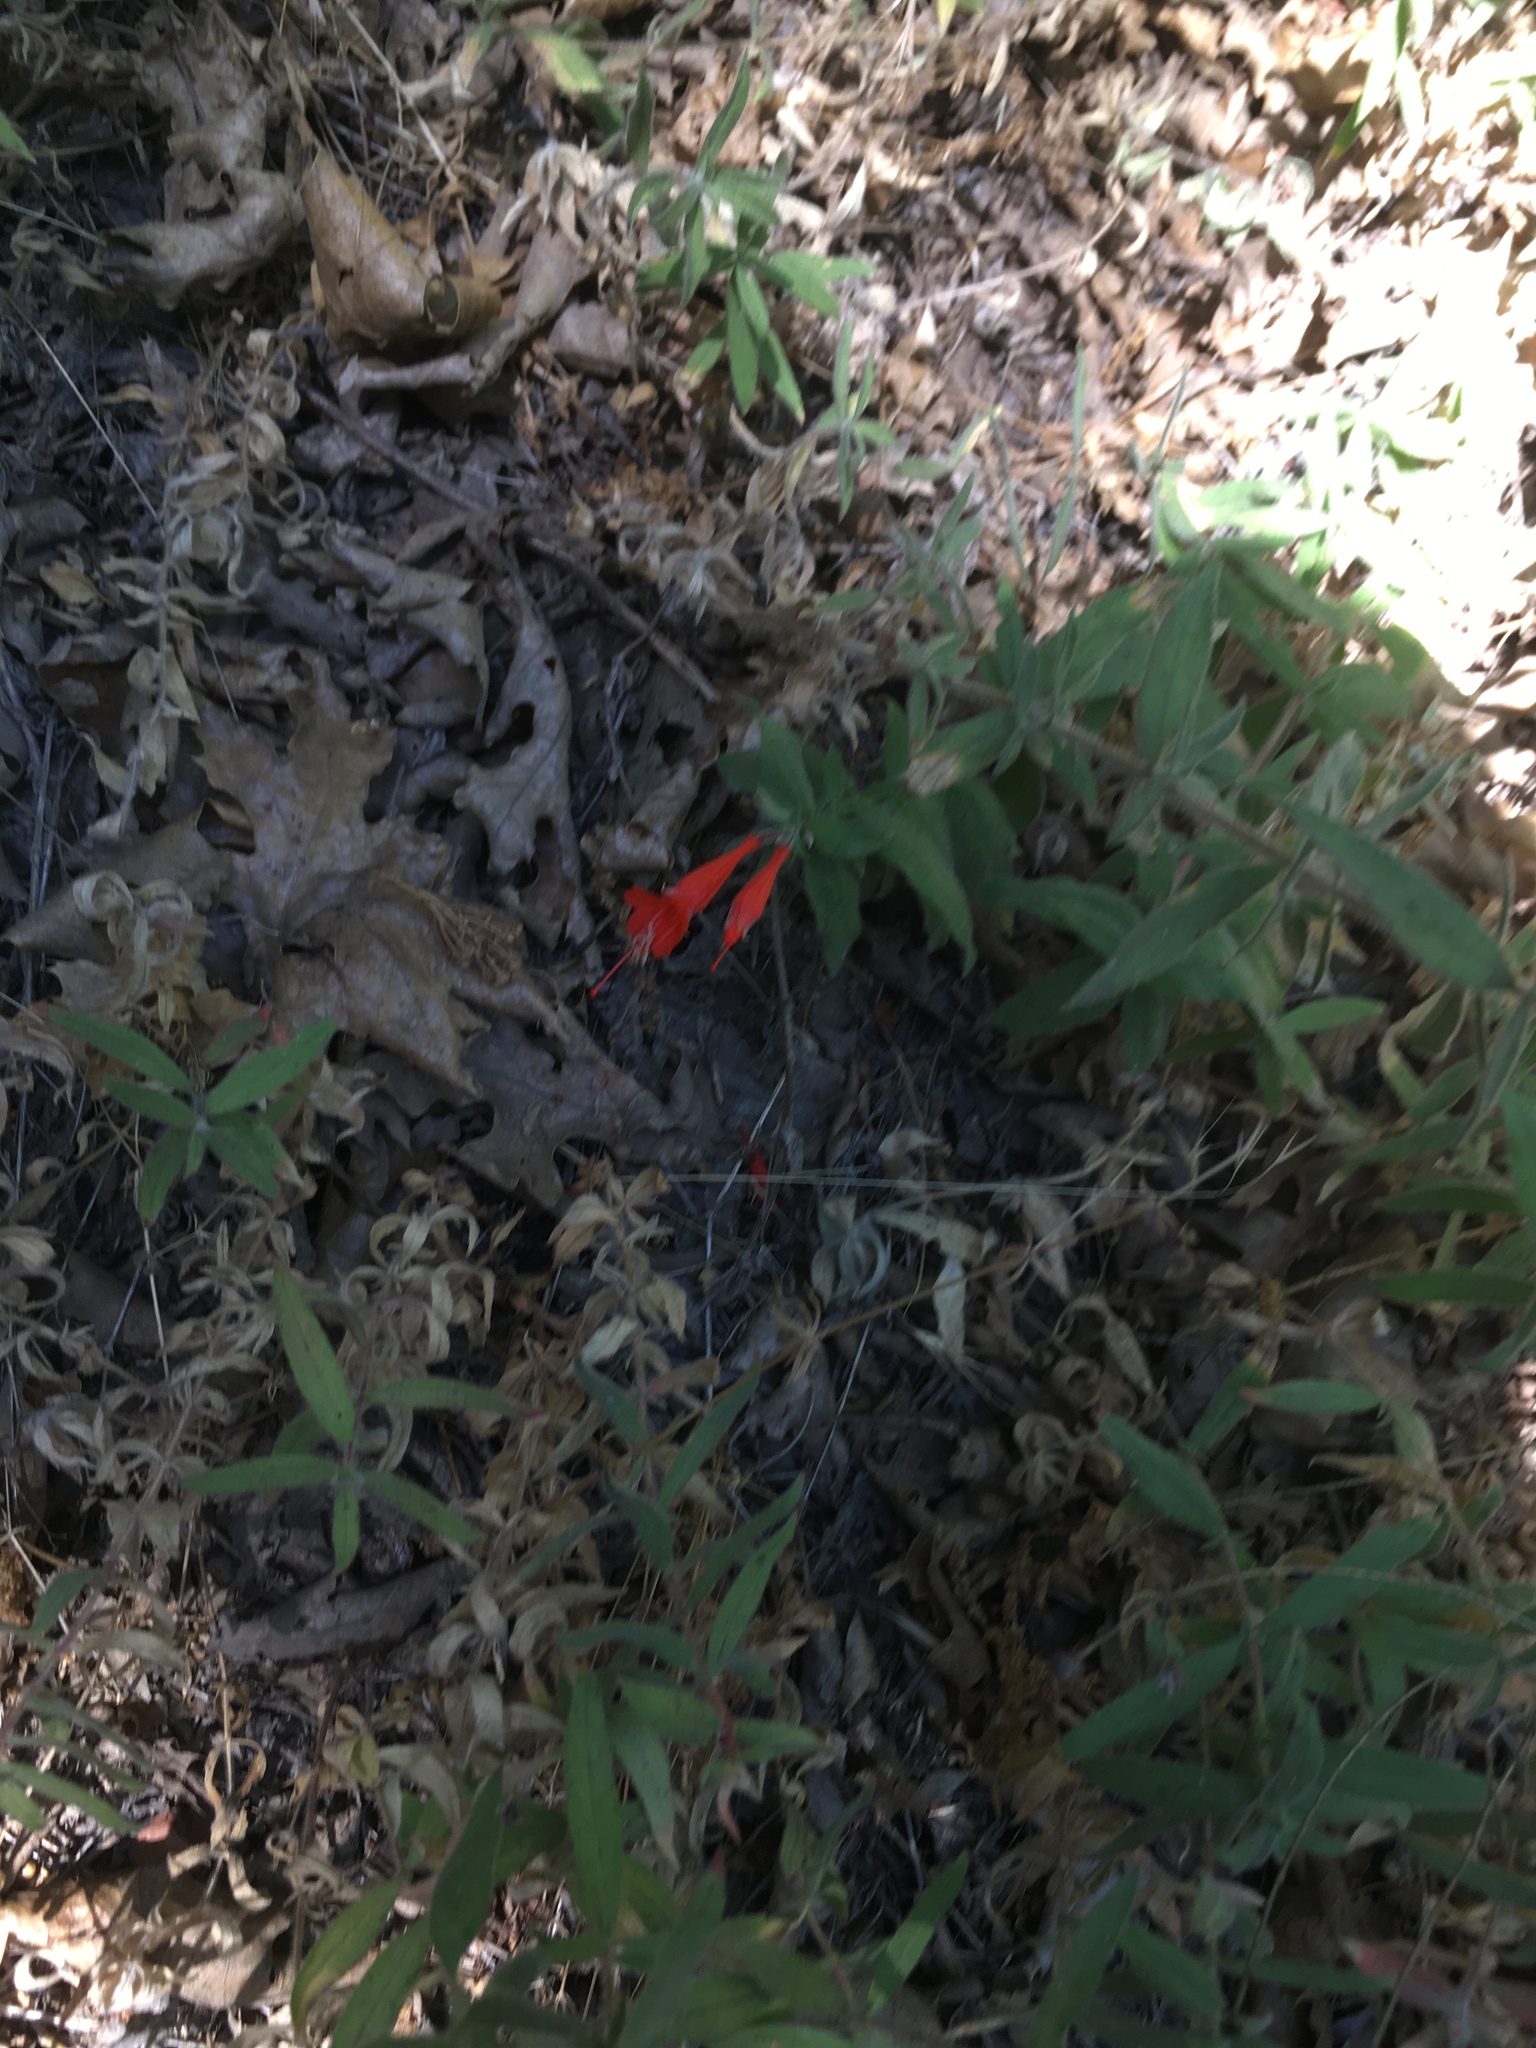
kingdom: Plantae
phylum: Tracheophyta
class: Magnoliopsida
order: Myrtales
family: Onagraceae
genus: Epilobium
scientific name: Epilobium canum
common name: California-fuchsia
